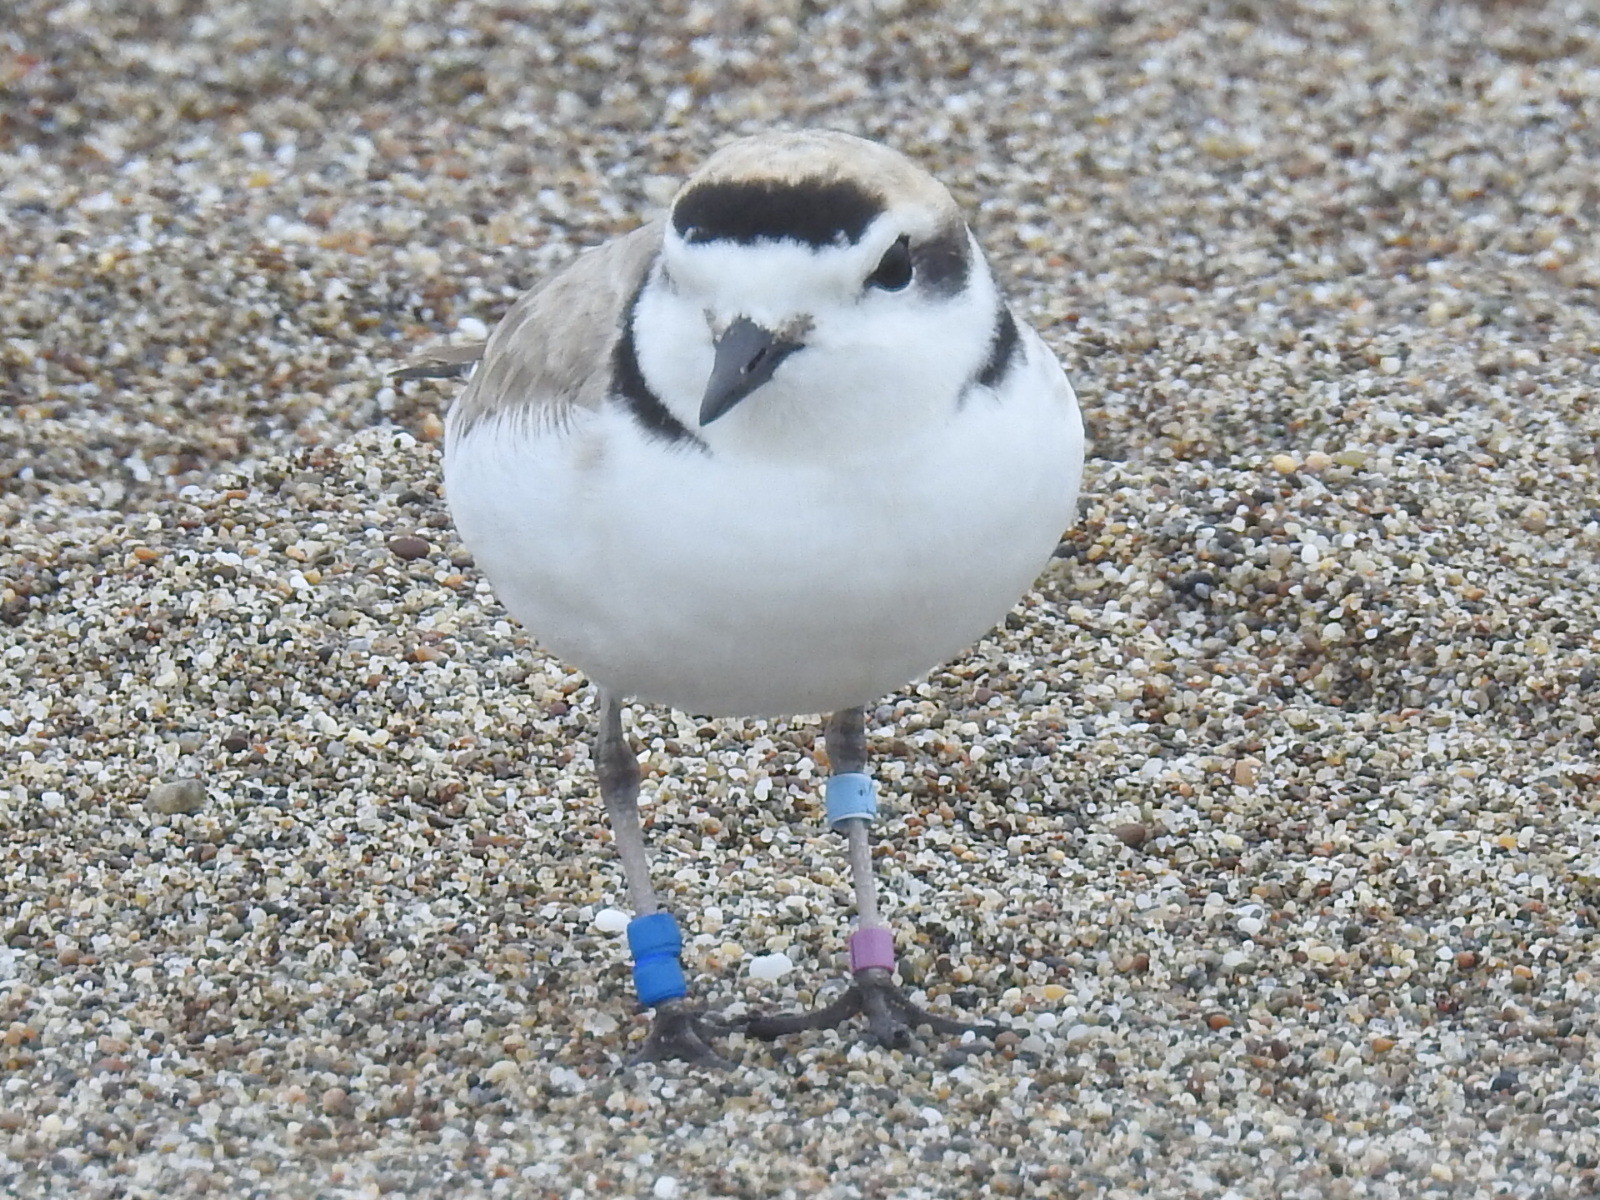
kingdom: Animalia
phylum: Chordata
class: Aves
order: Charadriiformes
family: Charadriidae
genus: Anarhynchus
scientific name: Anarhynchus
